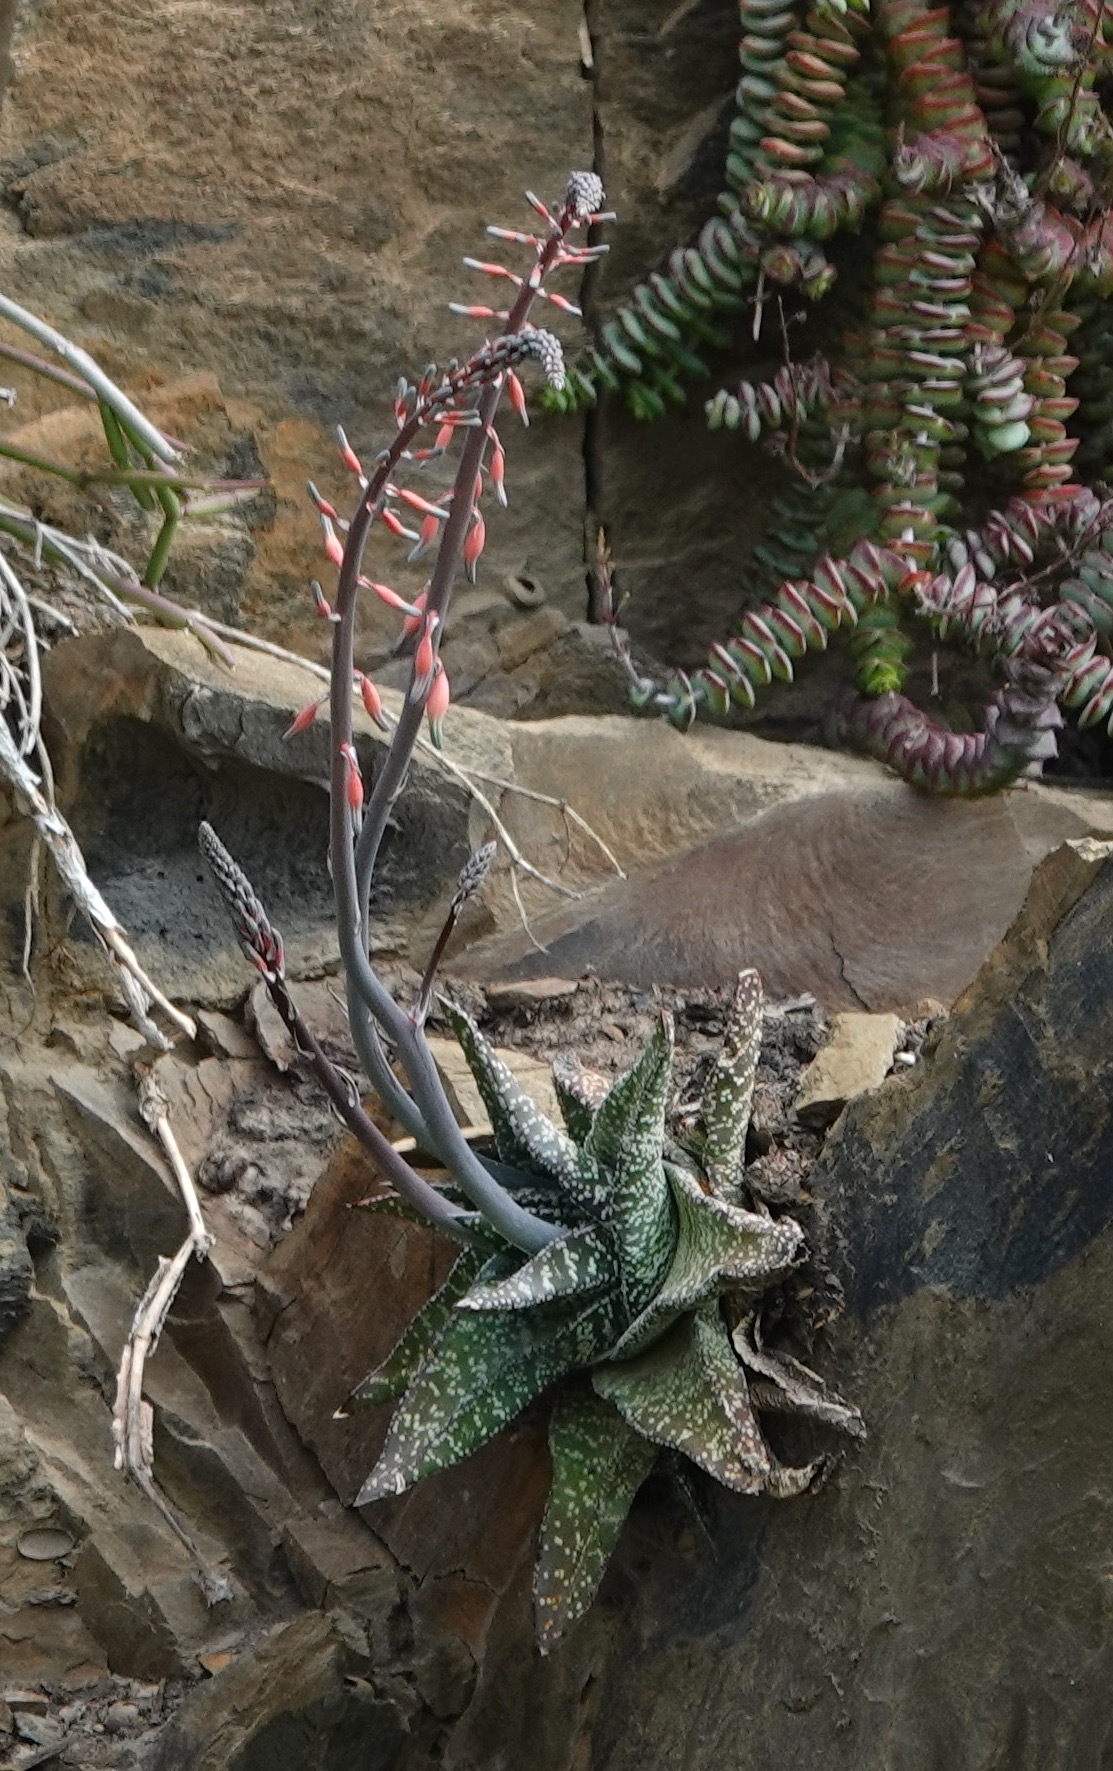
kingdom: Plantae
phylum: Tracheophyta
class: Liliopsida
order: Asparagales
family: Asphodelaceae
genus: Gasteria
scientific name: Gasteria carinata
